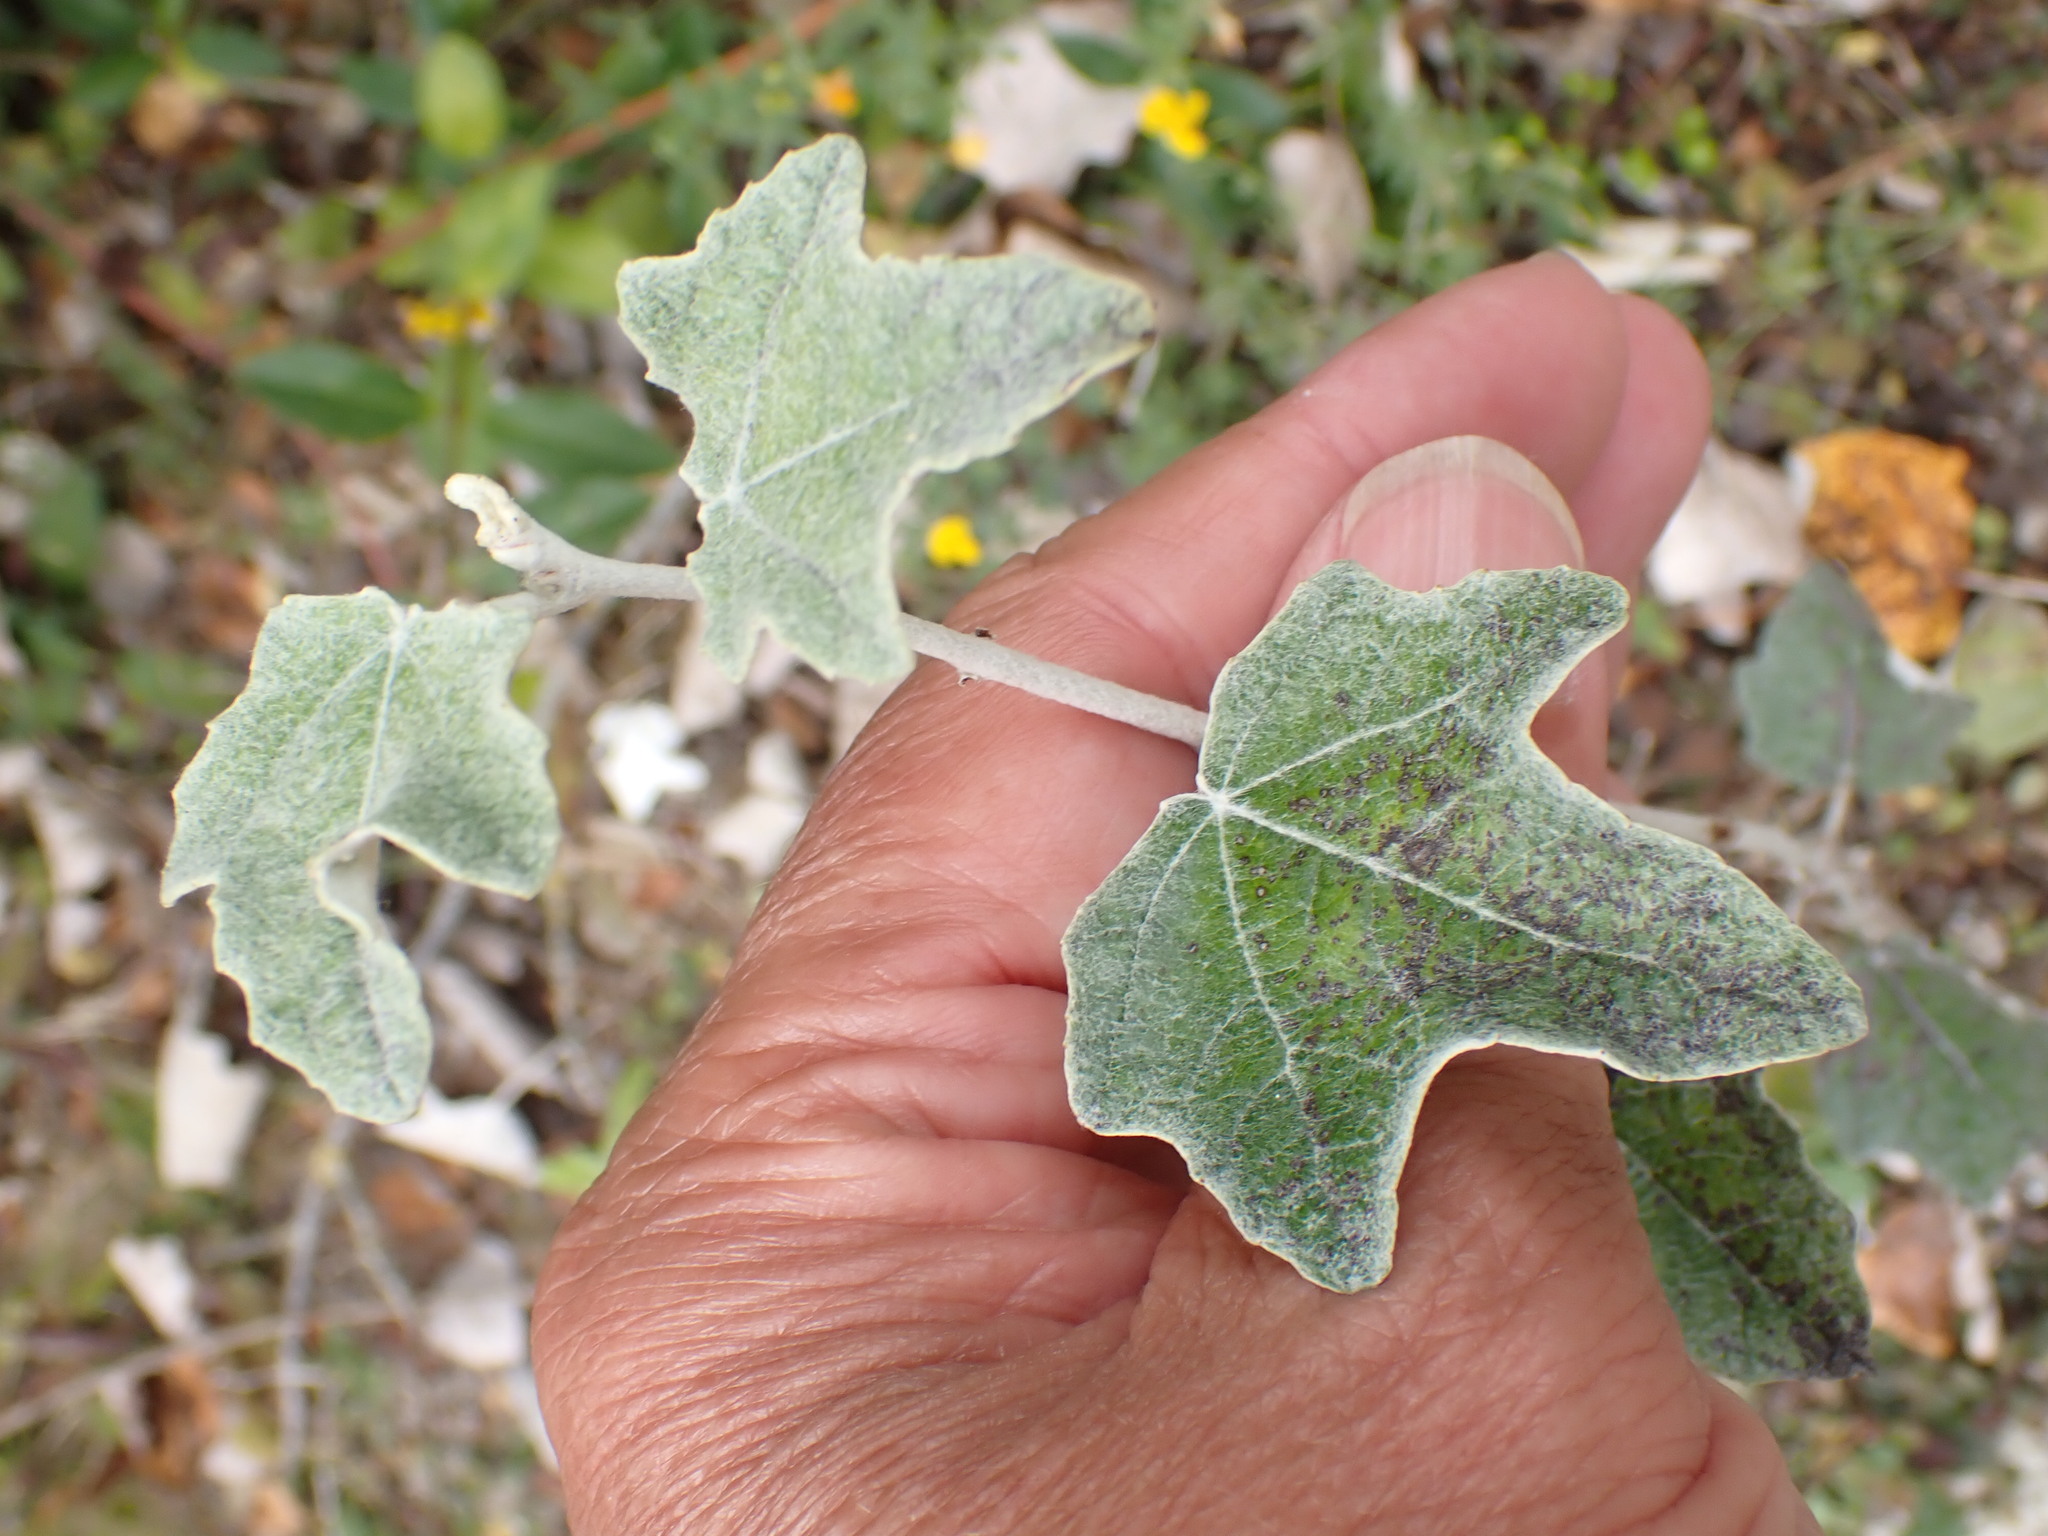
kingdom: Plantae
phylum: Tracheophyta
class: Magnoliopsida
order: Malpighiales
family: Salicaceae
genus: Populus
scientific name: Populus alba
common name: White poplar
